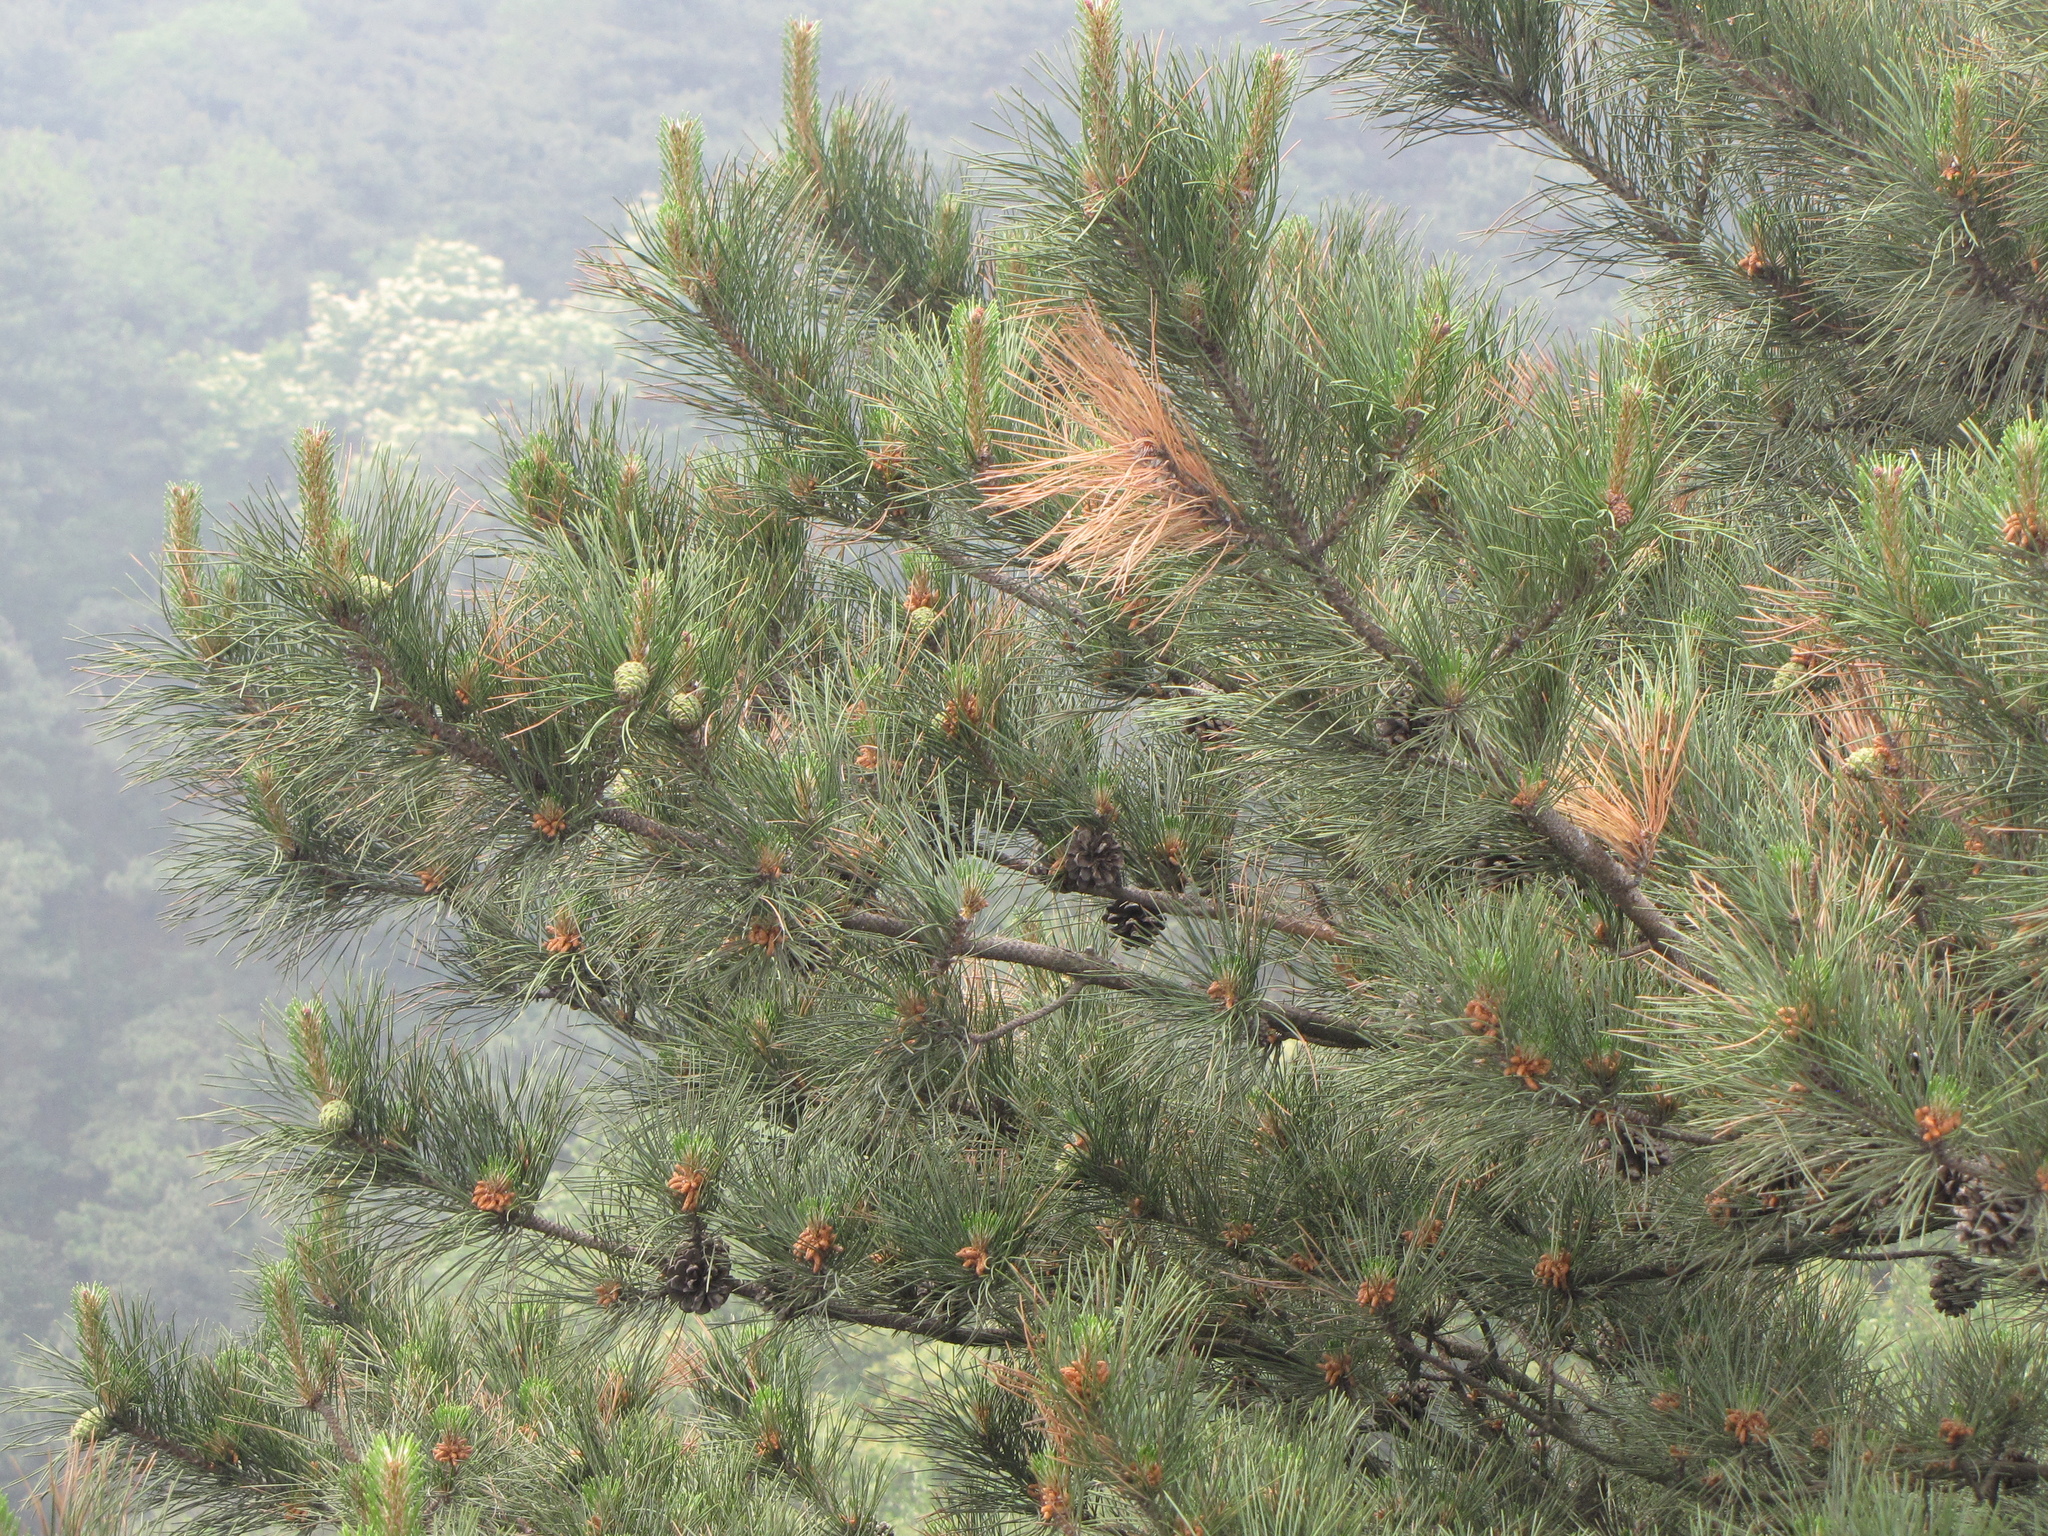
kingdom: Plantae
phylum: Tracheophyta
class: Pinopsida
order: Pinales
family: Pinaceae
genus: Pinus
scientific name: Pinus tabuliformis
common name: Chinese red pine
